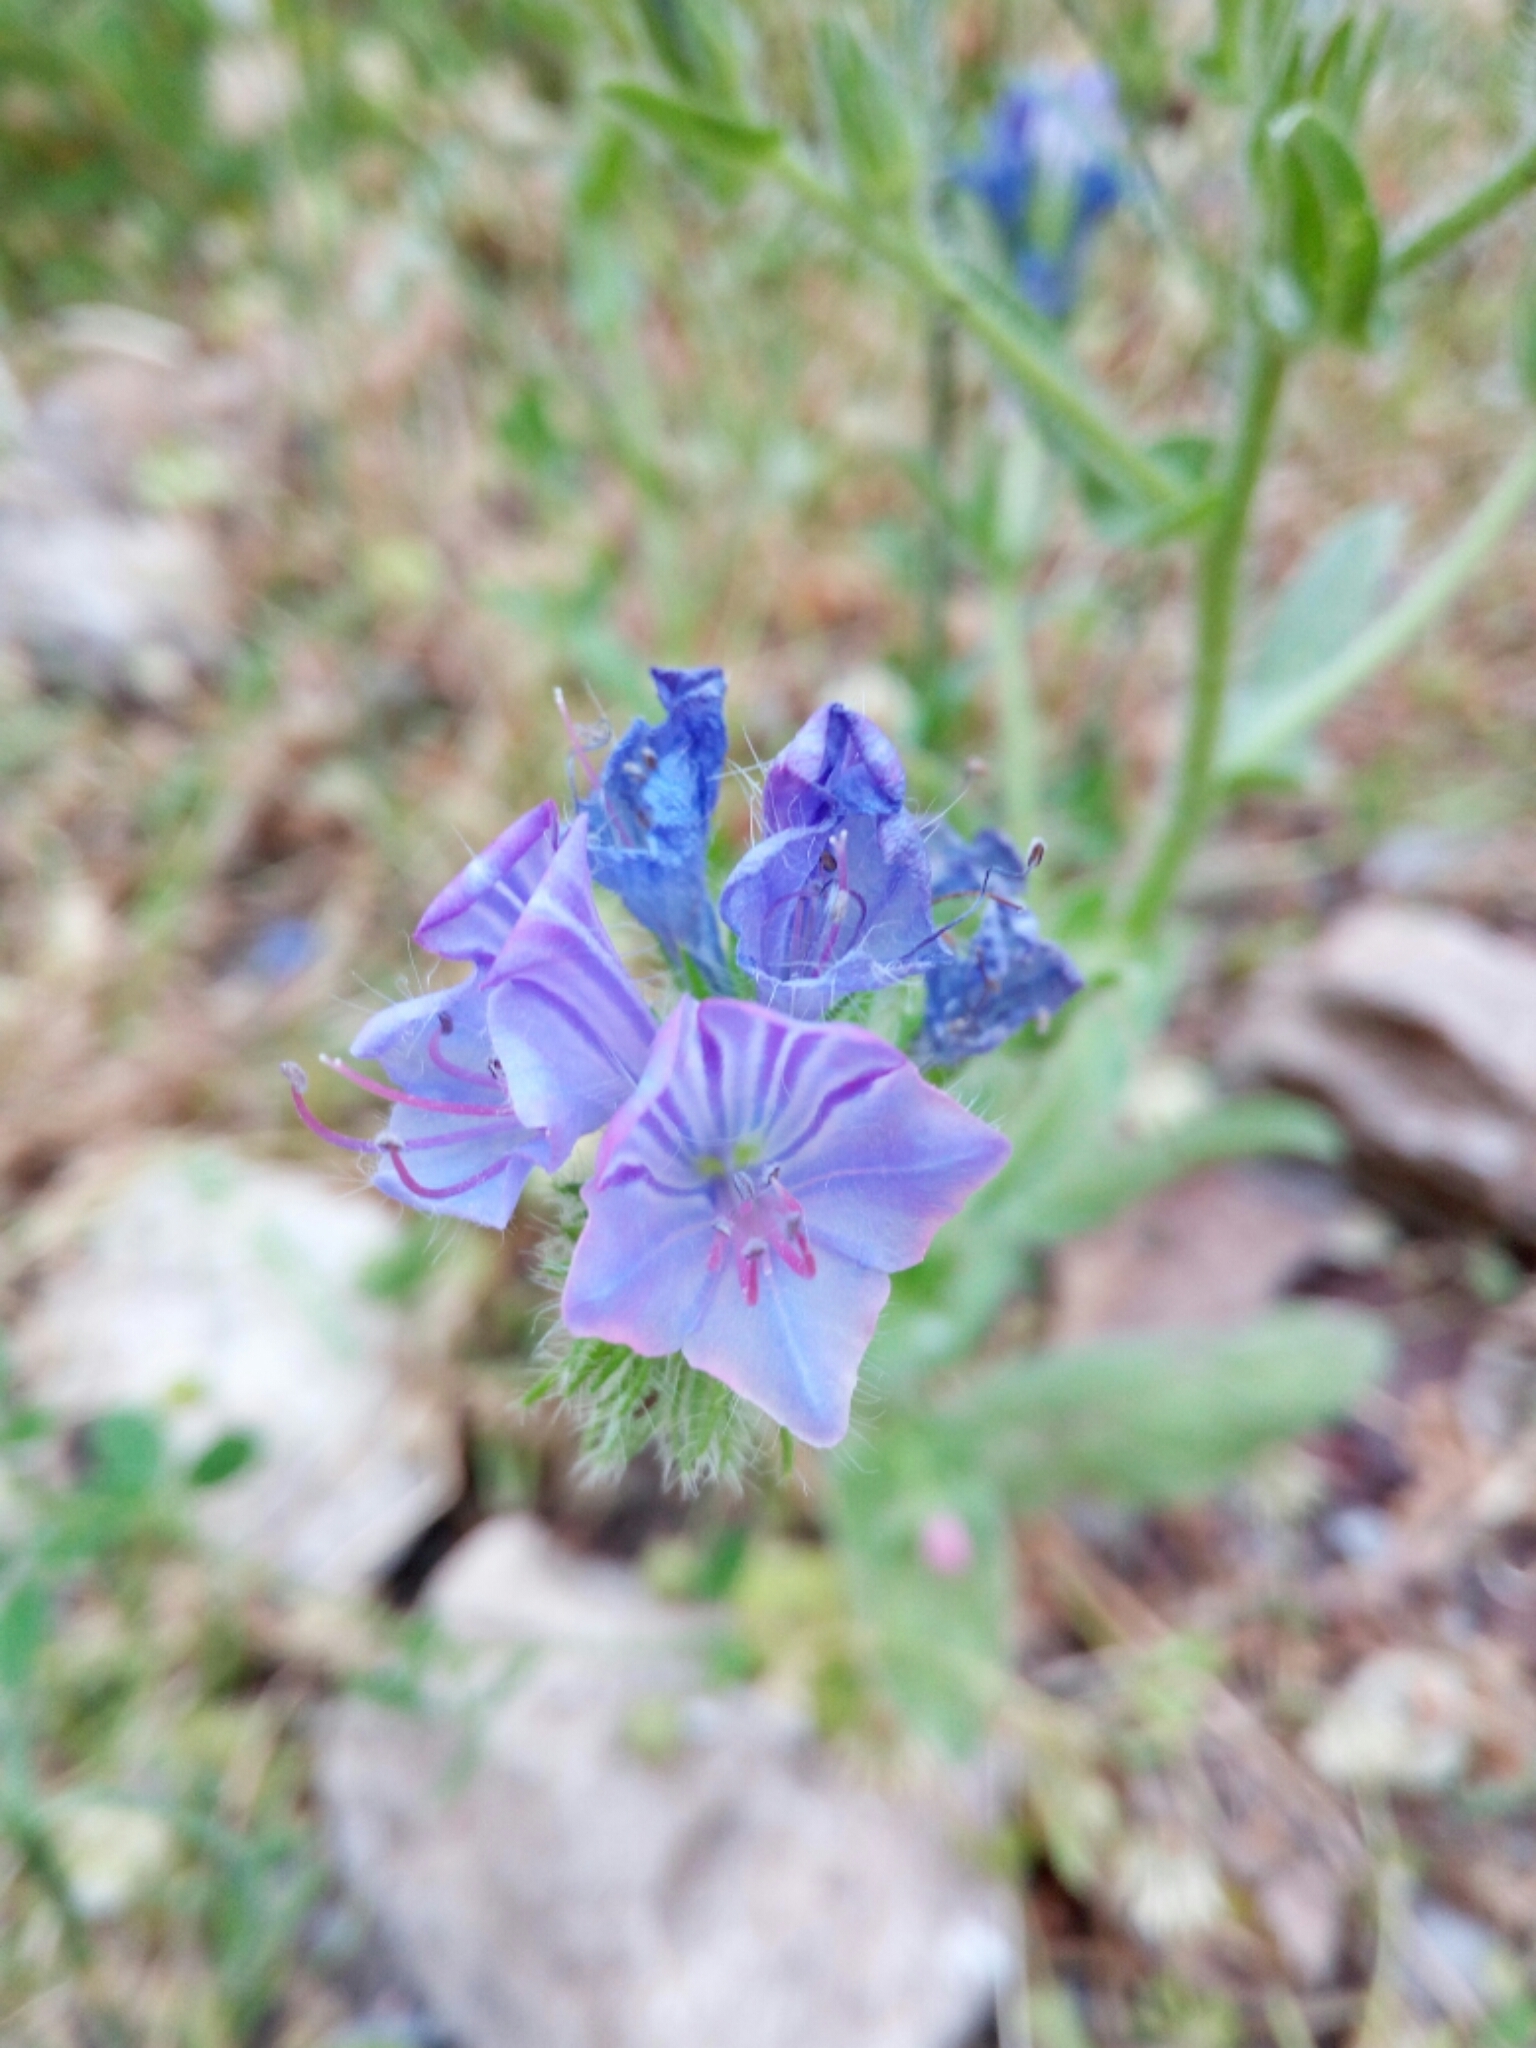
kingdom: Plantae
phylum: Tracheophyta
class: Magnoliopsida
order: Boraginales
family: Boraginaceae
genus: Echium
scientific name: Echium plantagineum
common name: Purple viper's-bugloss
